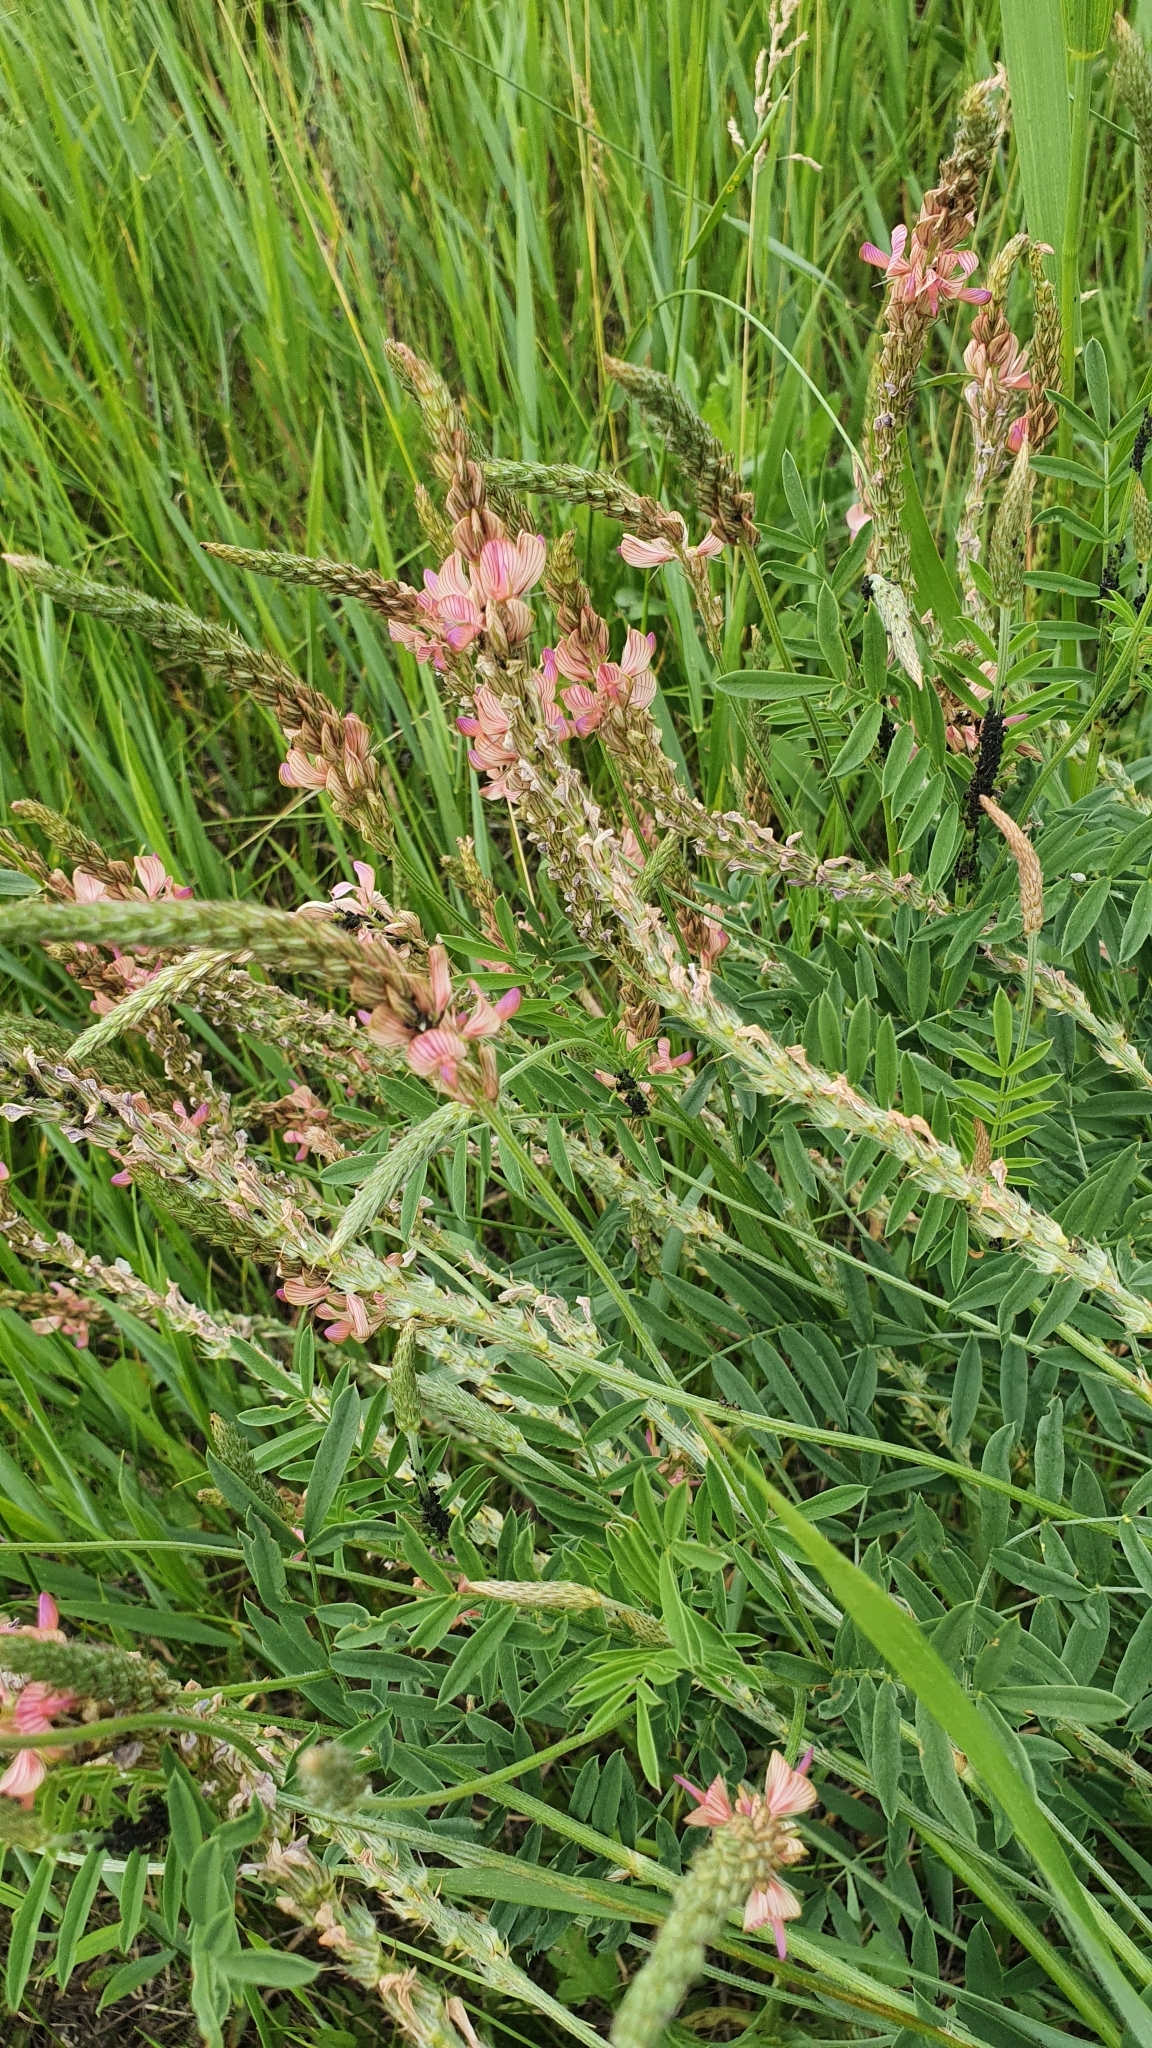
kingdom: Plantae
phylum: Tracheophyta
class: Magnoliopsida
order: Fabales
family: Fabaceae
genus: Onobrychis
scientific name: Onobrychis arenaria
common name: Sand esparcet
